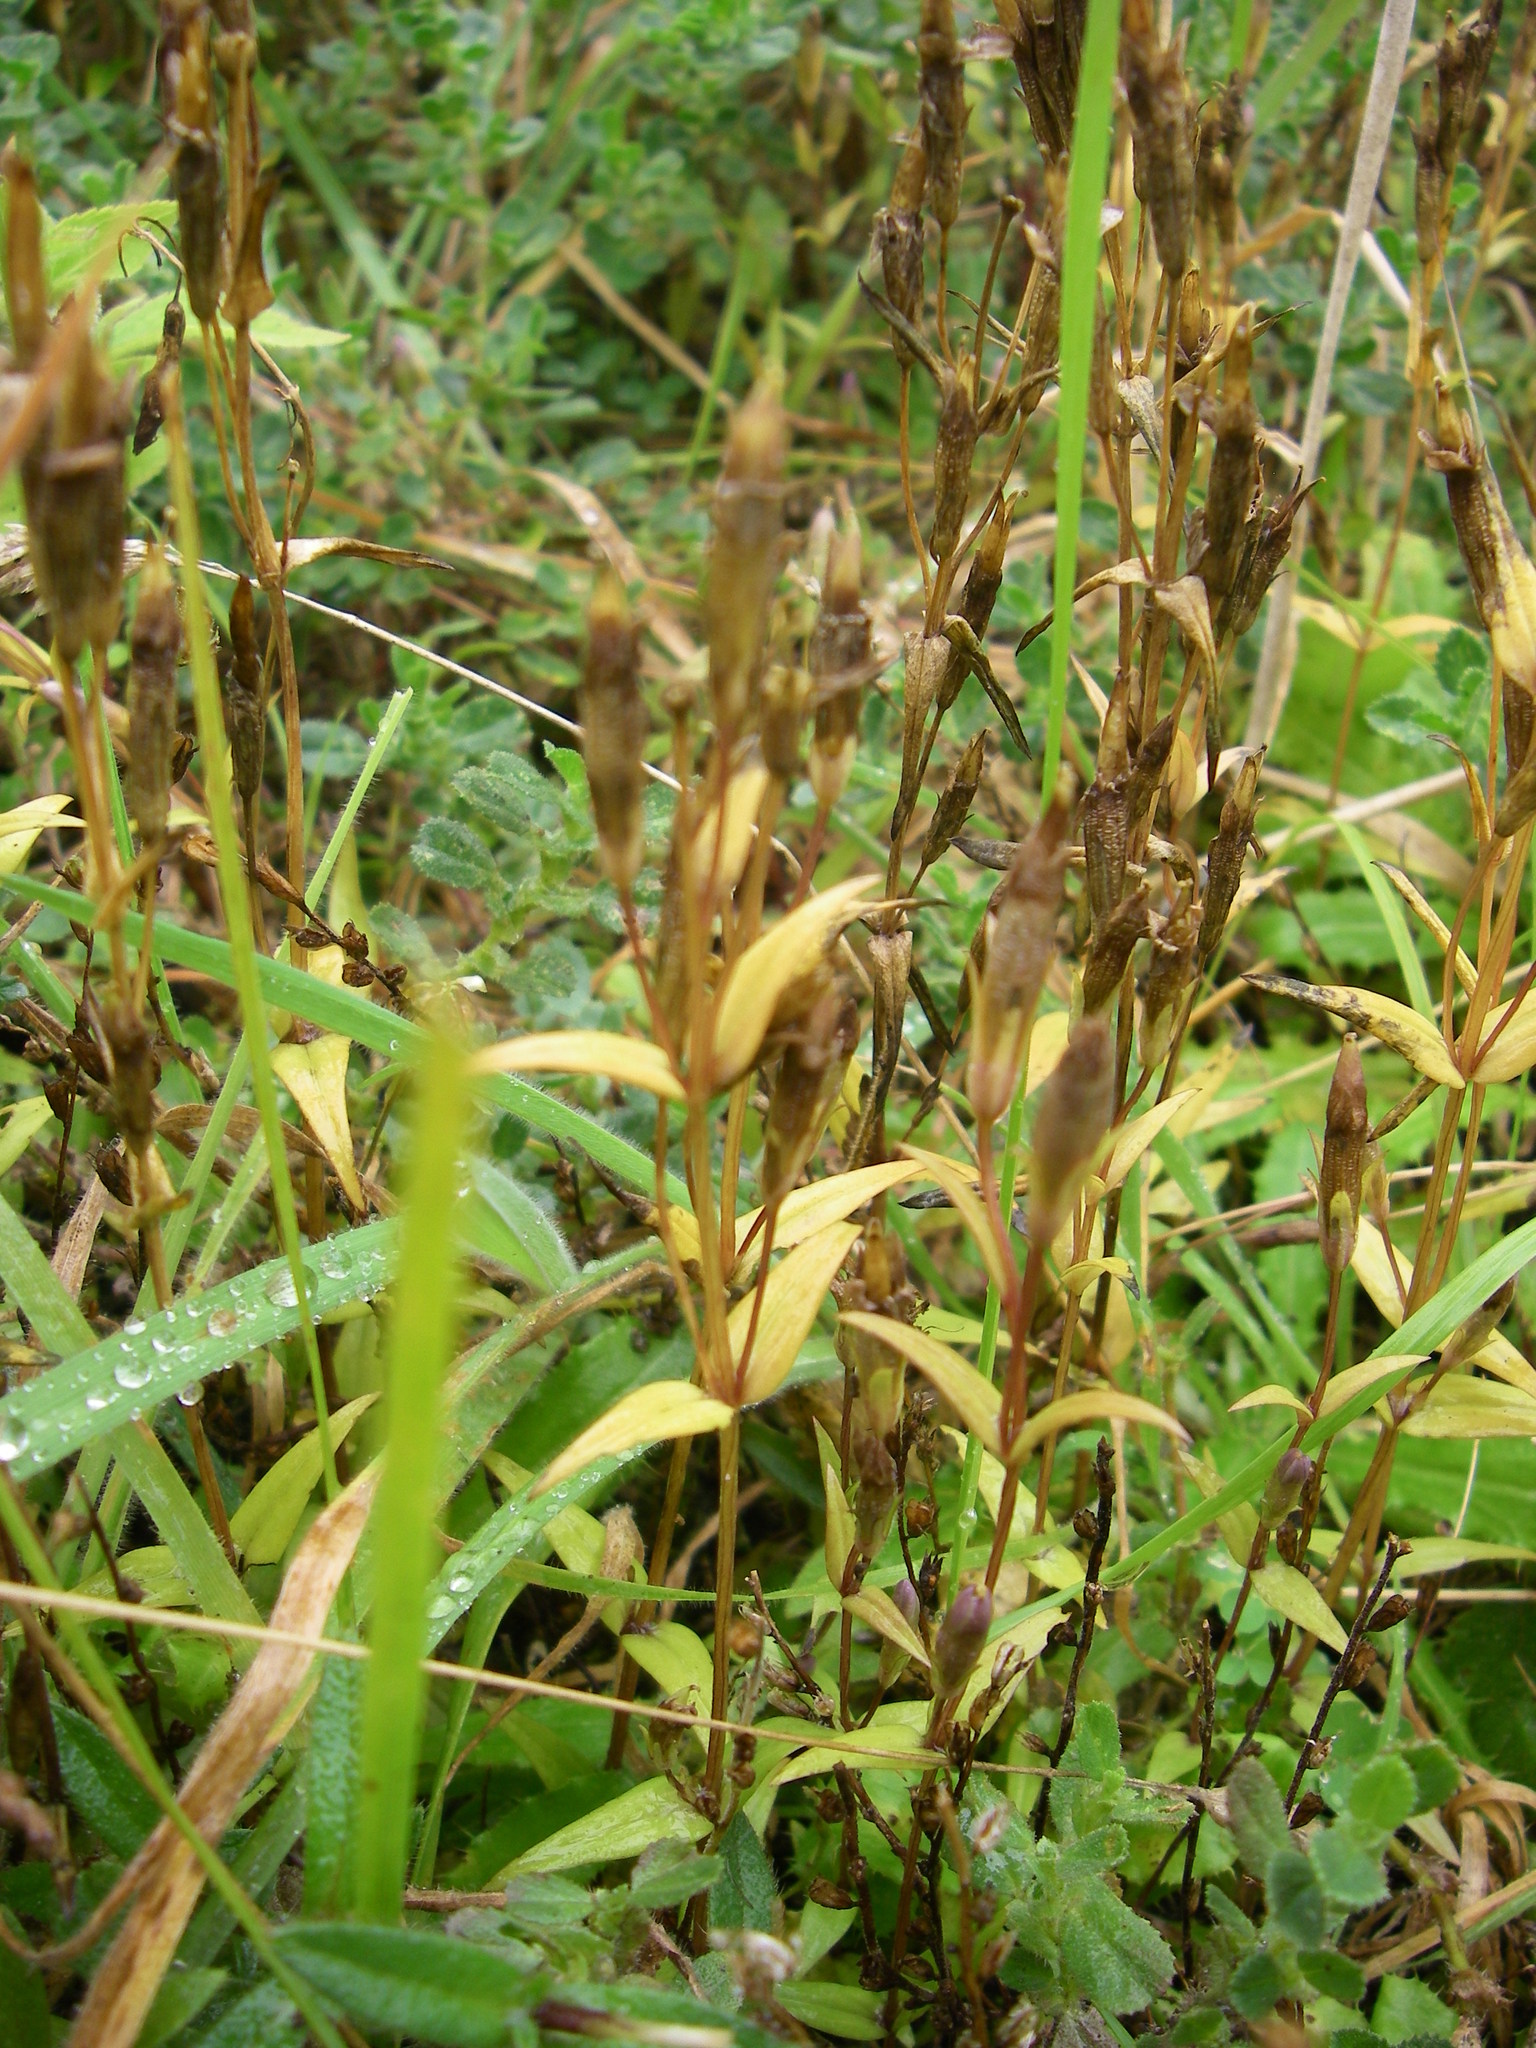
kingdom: Plantae
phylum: Tracheophyta
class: Magnoliopsida
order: Gentianales
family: Gentianaceae
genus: Gentianella
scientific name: Gentianella uliginosa
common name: Dune gentian
